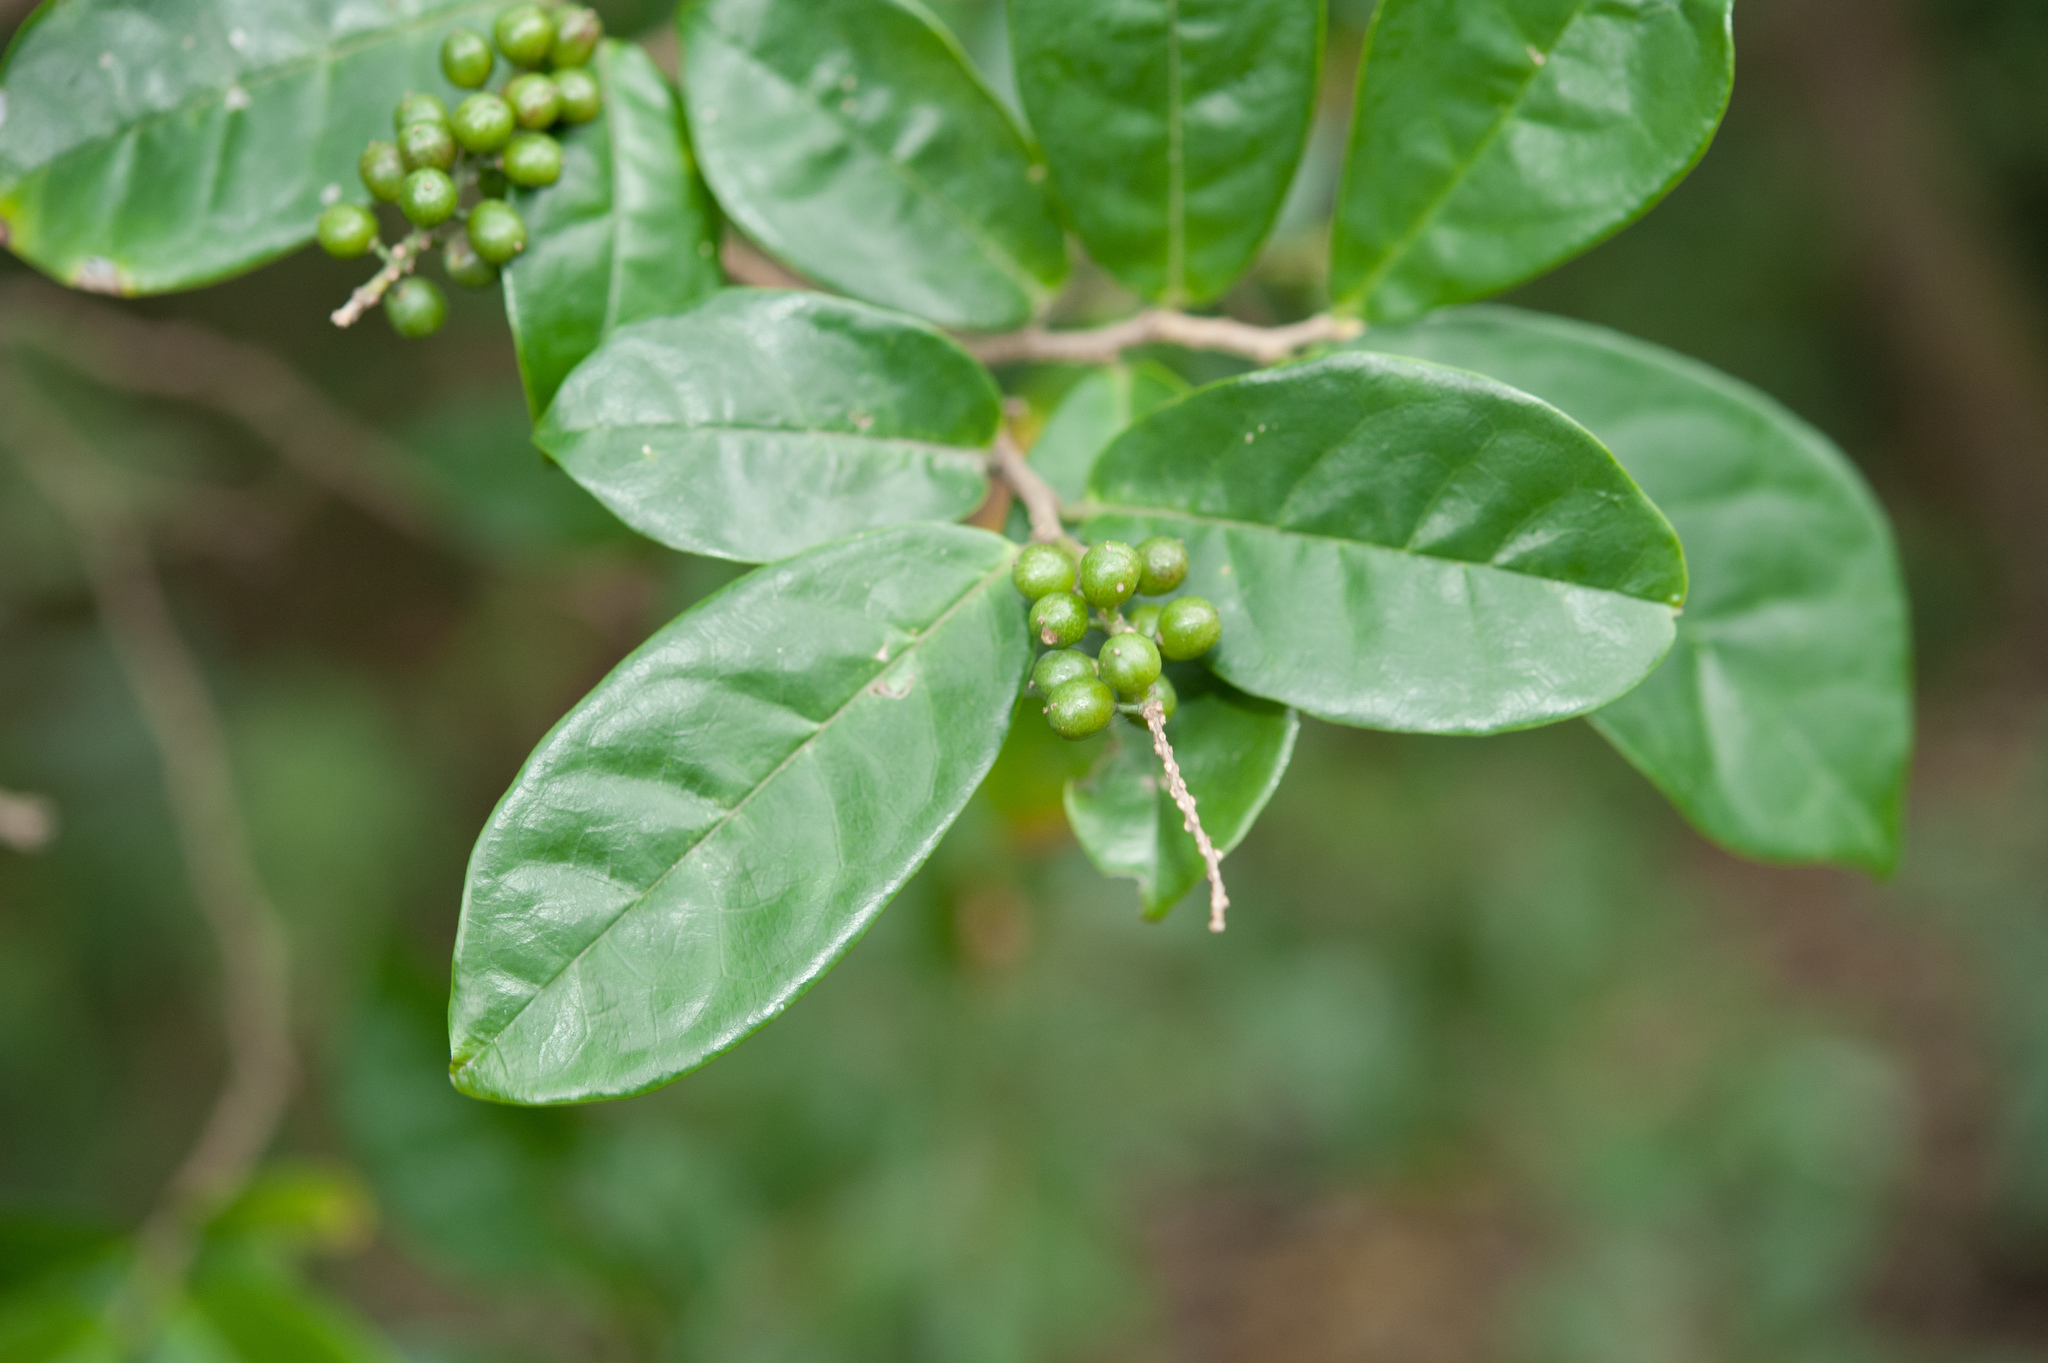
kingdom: Plantae
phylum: Tracheophyta
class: Magnoliopsida
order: Malpighiales
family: Phyllanthaceae
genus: Antidesma
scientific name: Antidesma montanum
